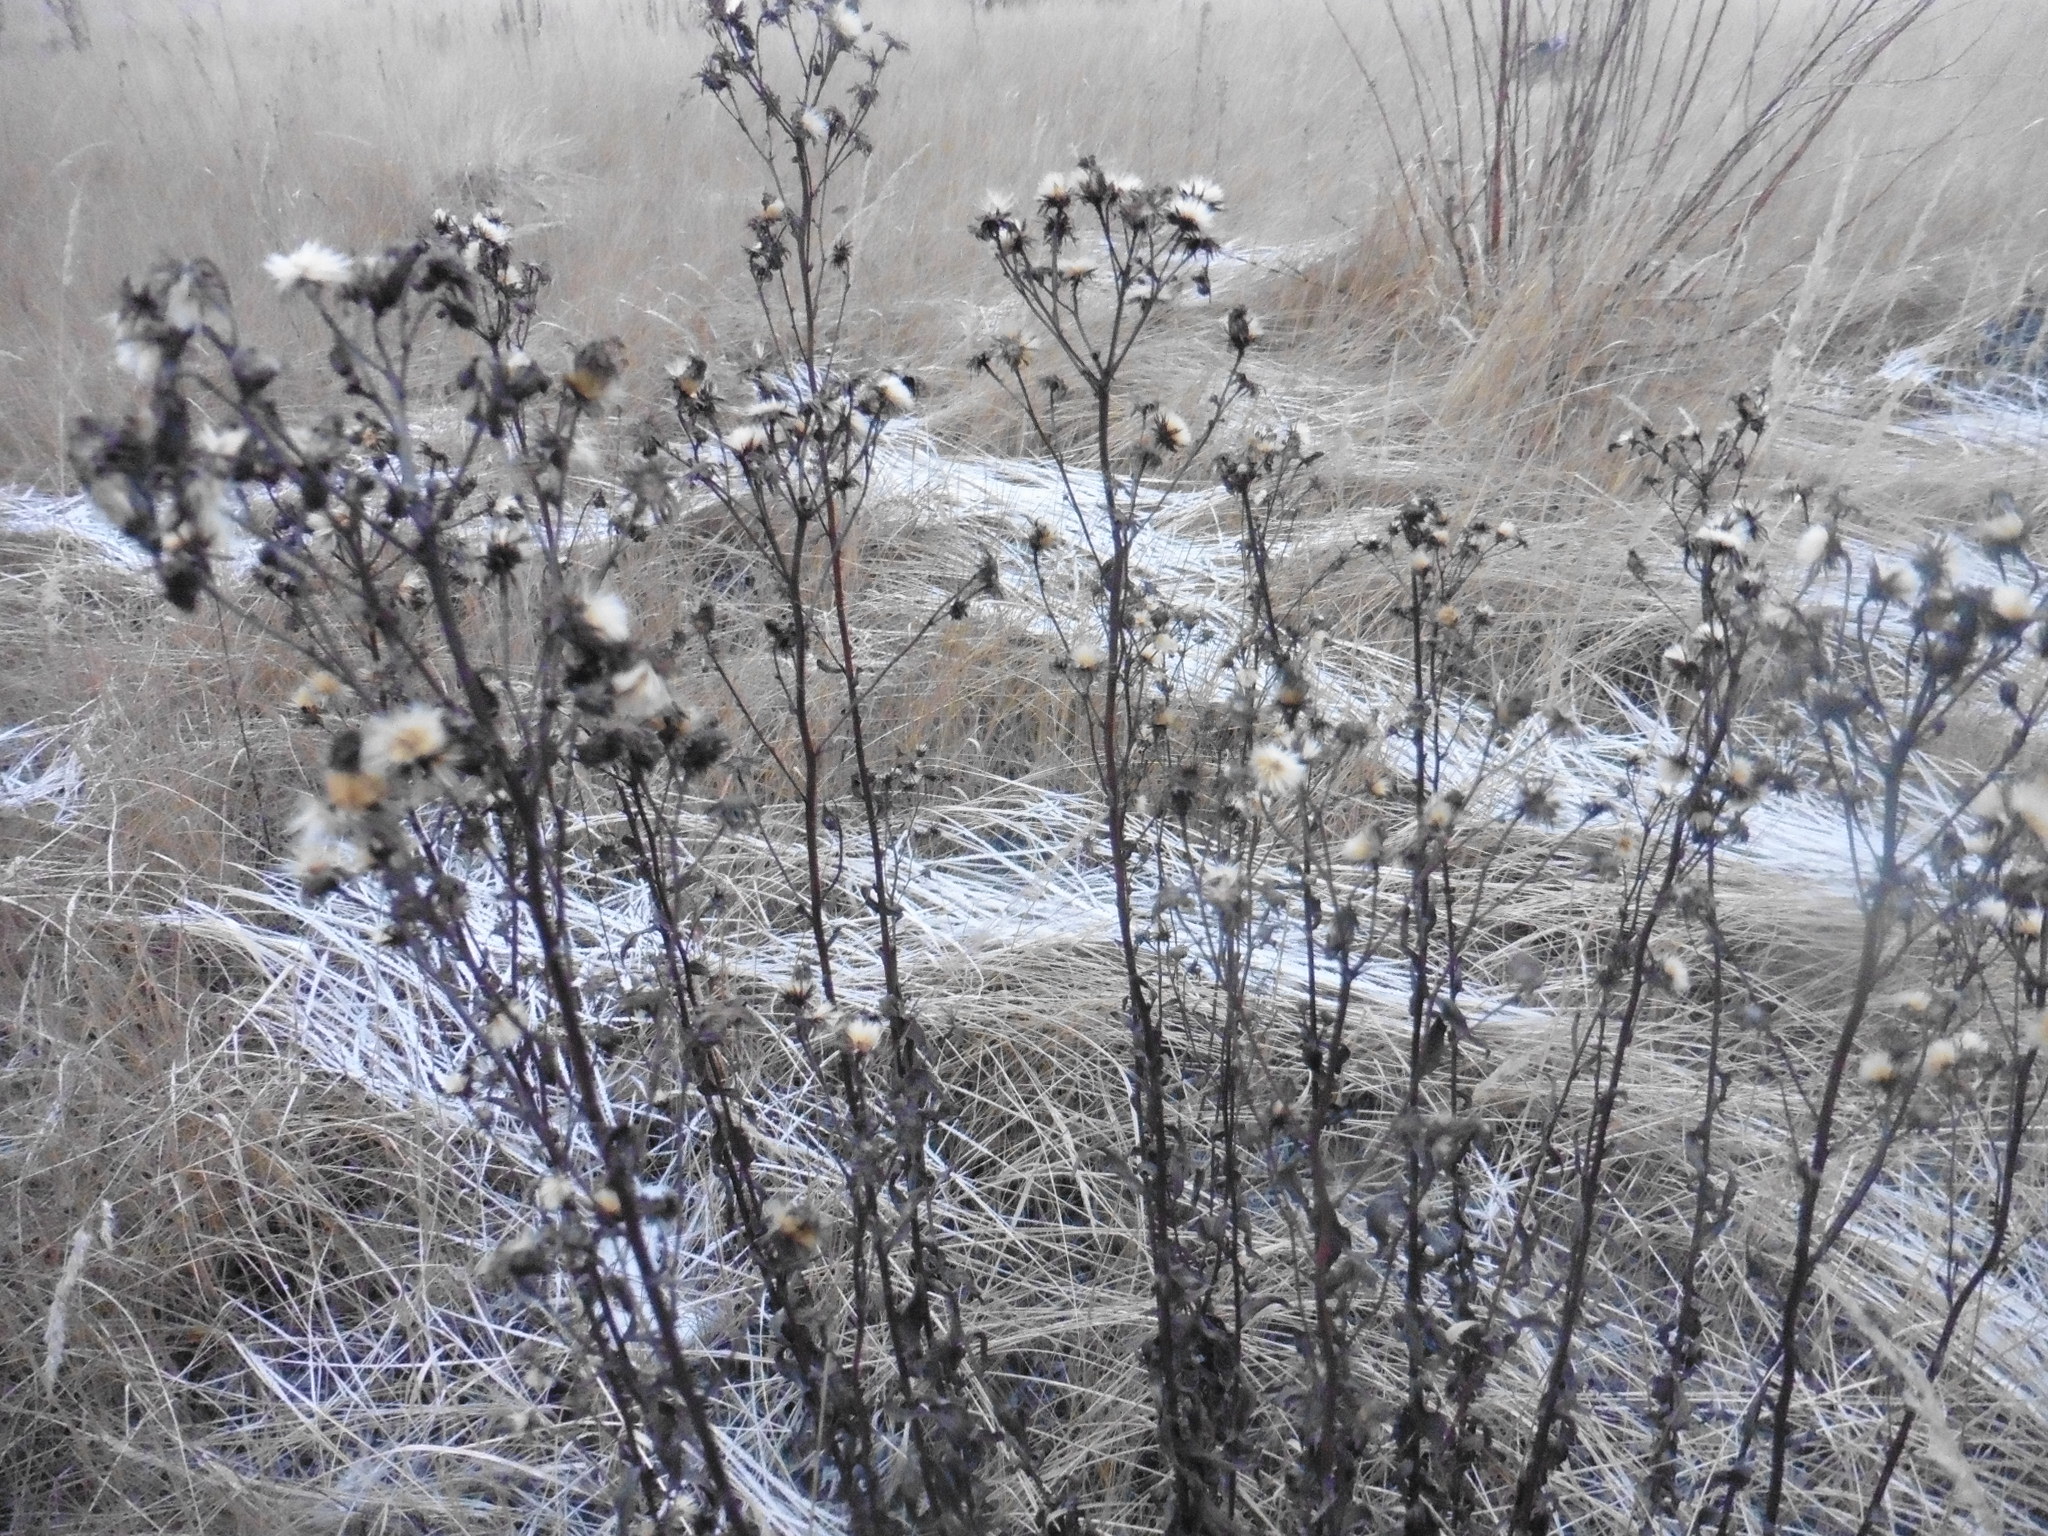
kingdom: Plantae
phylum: Tracheophyta
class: Magnoliopsida
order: Asterales
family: Asteraceae
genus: Hieracium
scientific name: Hieracium umbellatum
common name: Northern hawkweed
